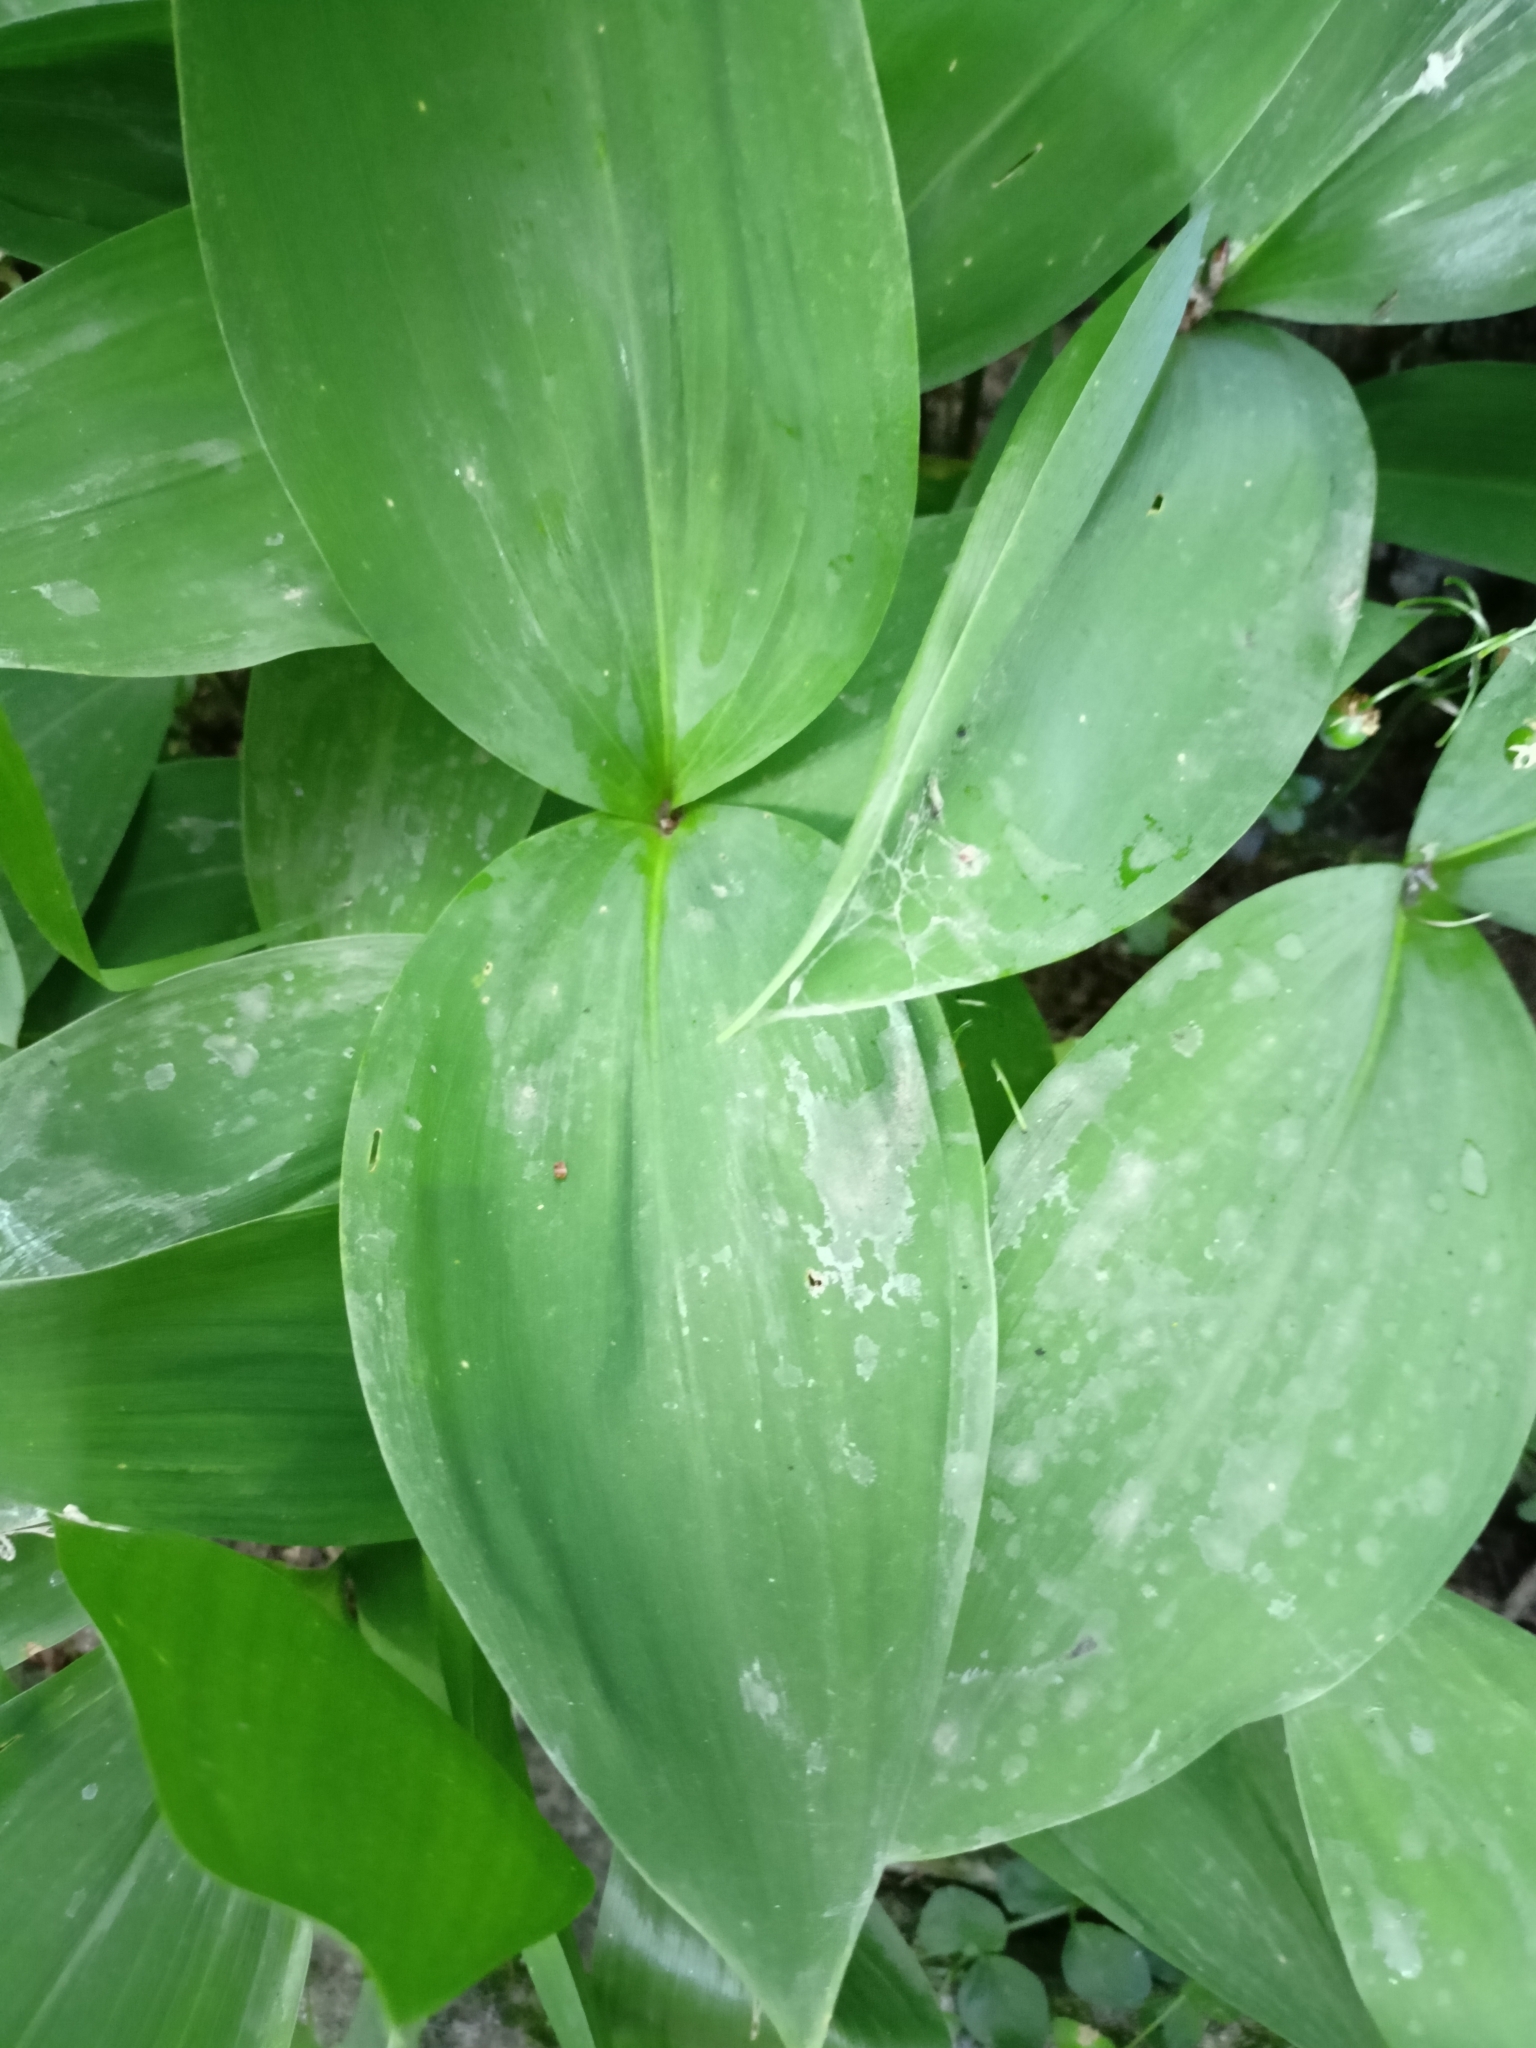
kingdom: Plantae
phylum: Tracheophyta
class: Liliopsida
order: Asparagales
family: Asparagaceae
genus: Convallaria
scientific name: Convallaria majalis
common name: Lily-of-the-valley
